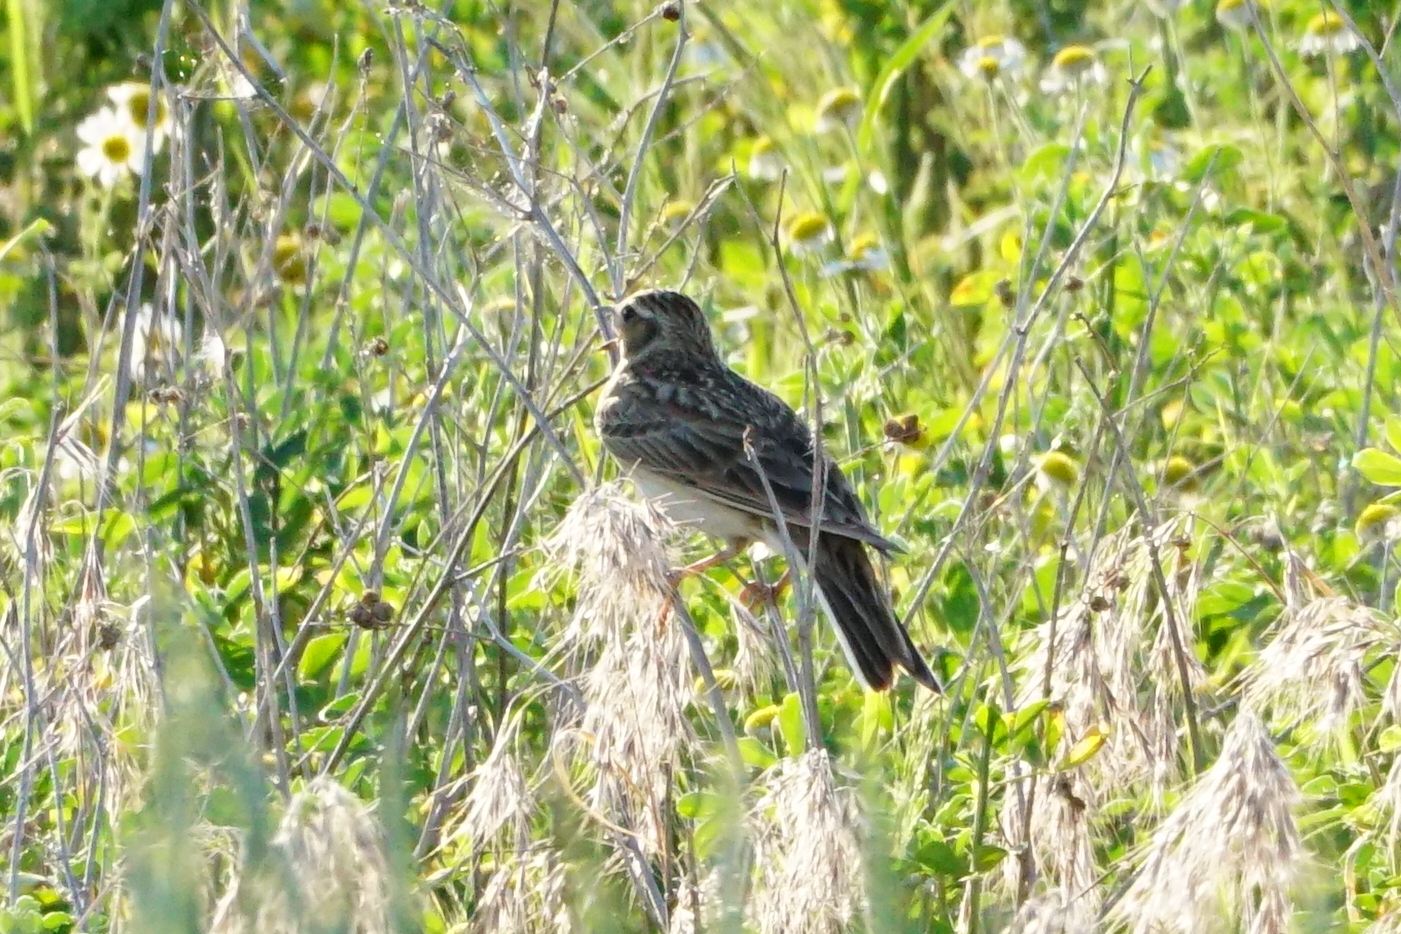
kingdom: Animalia
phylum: Chordata
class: Aves
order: Passeriformes
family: Alaudidae
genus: Alauda
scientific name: Alauda arvensis
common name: Eurasian skylark
